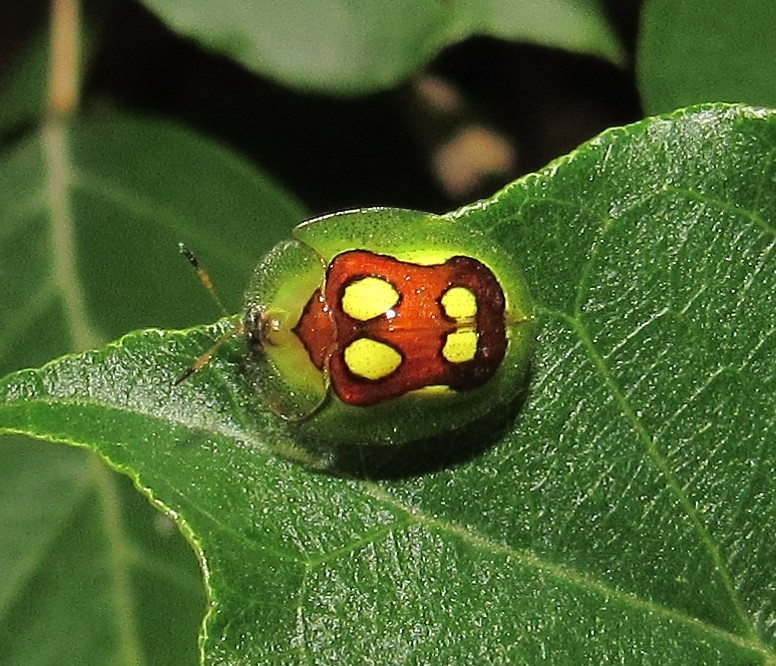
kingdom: Animalia
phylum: Arthropoda
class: Insecta
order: Coleoptera
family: Chrysomelidae
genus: Plagiometriona
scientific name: Plagiometriona ludicra
